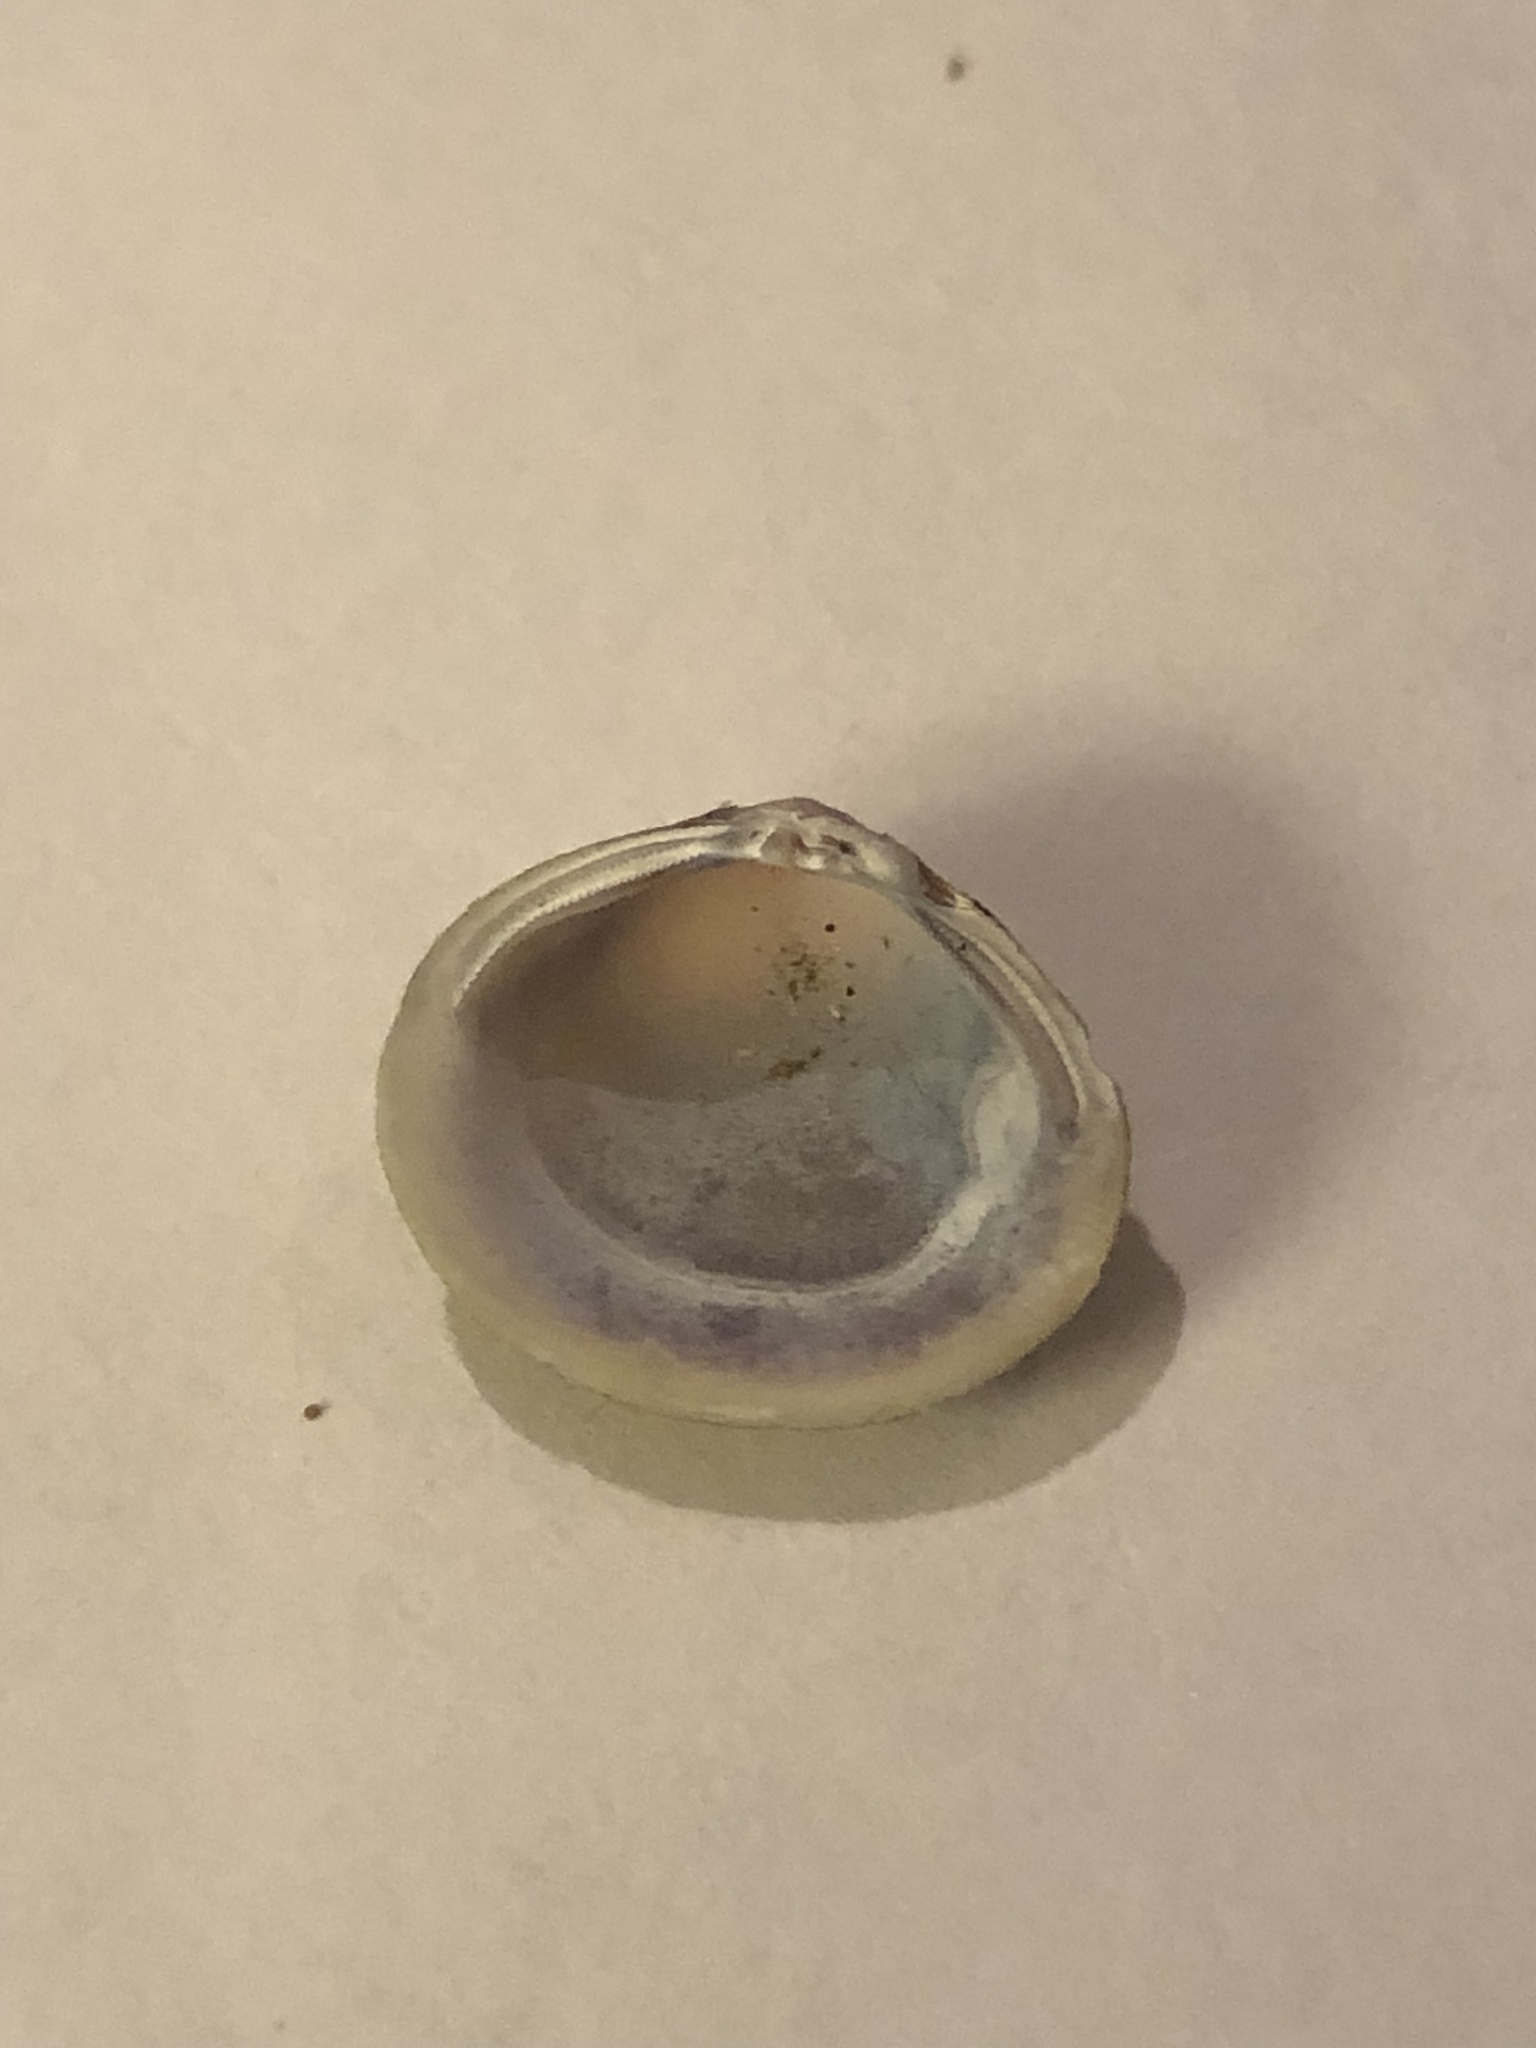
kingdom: Animalia
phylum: Mollusca
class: Bivalvia
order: Venerida
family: Cyrenidae
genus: Corbicula
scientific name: Corbicula fluminea
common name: Asian clam
